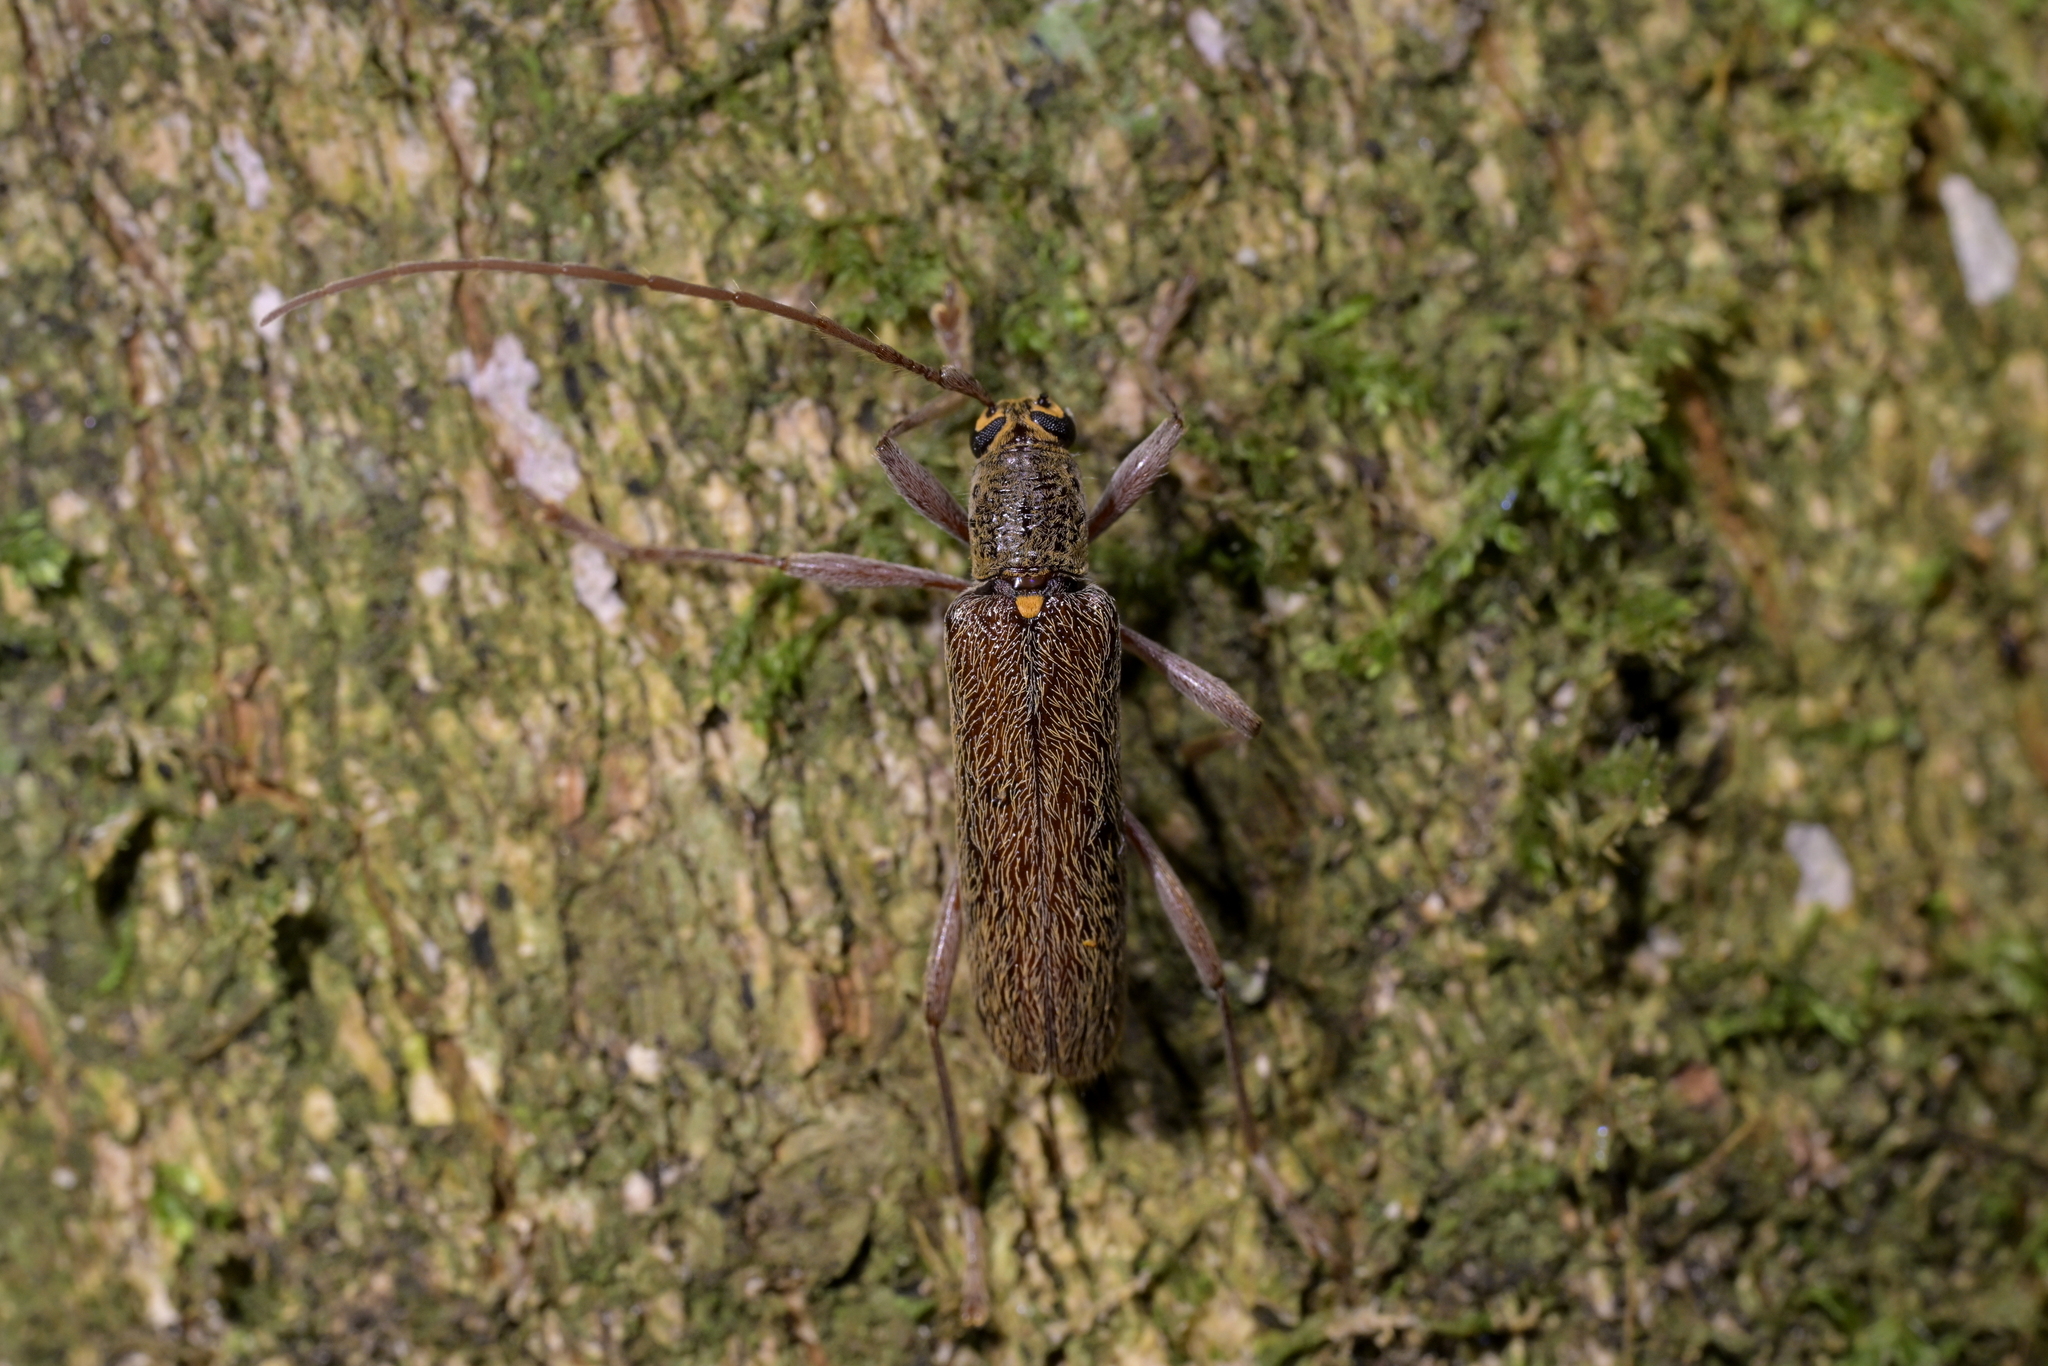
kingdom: Animalia
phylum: Arthropoda
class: Insecta
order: Coleoptera
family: Cerambycidae
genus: Oemona
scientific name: Oemona hirta
